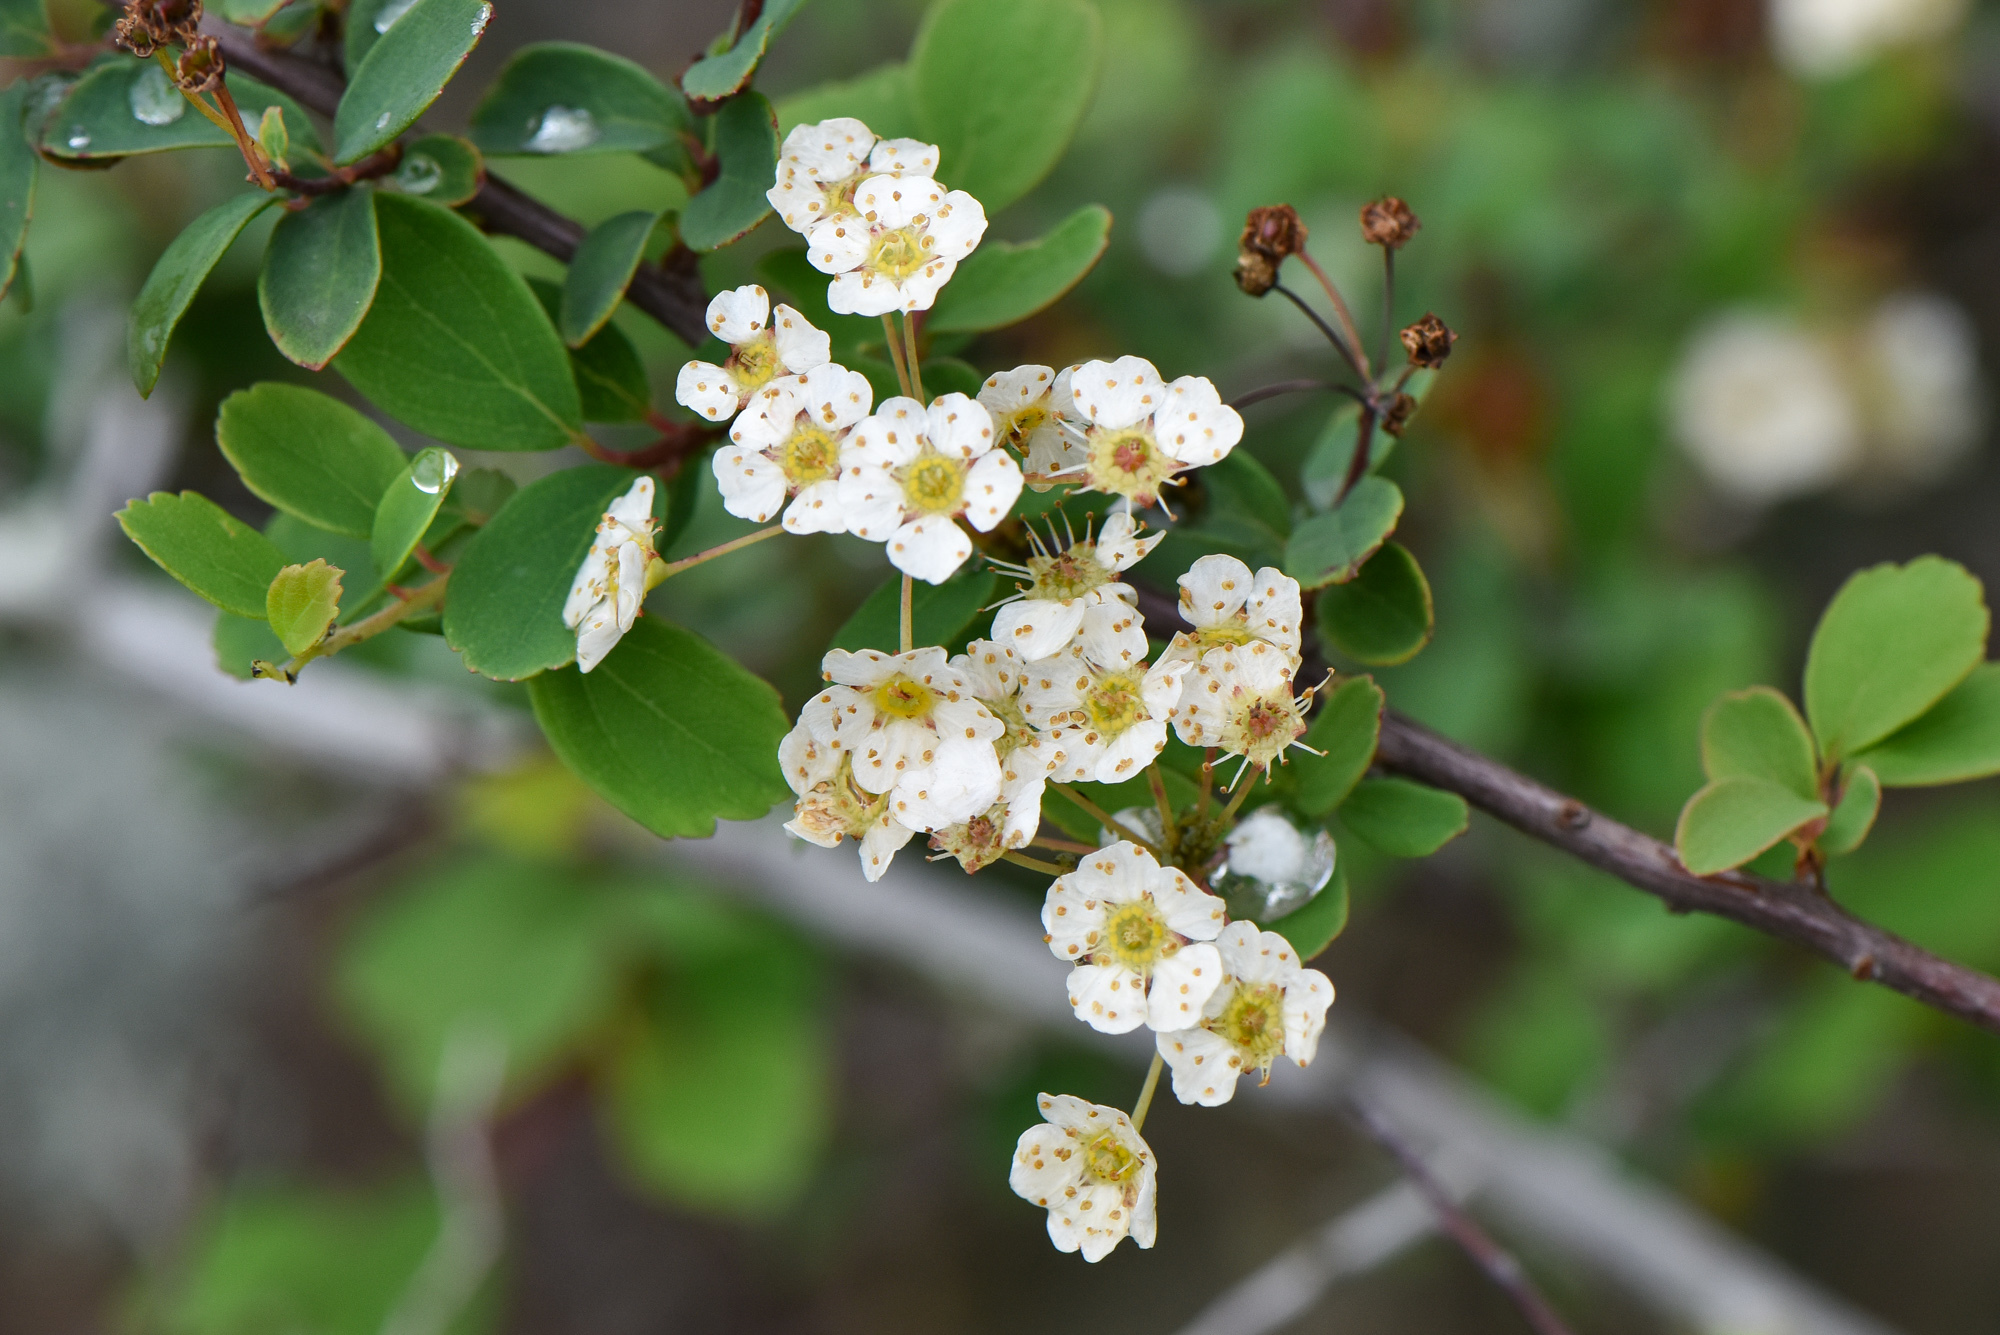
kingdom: Plantae
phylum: Tracheophyta
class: Magnoliopsida
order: Rosales
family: Rosaceae
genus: Spiraea
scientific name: Spiraea blumei
